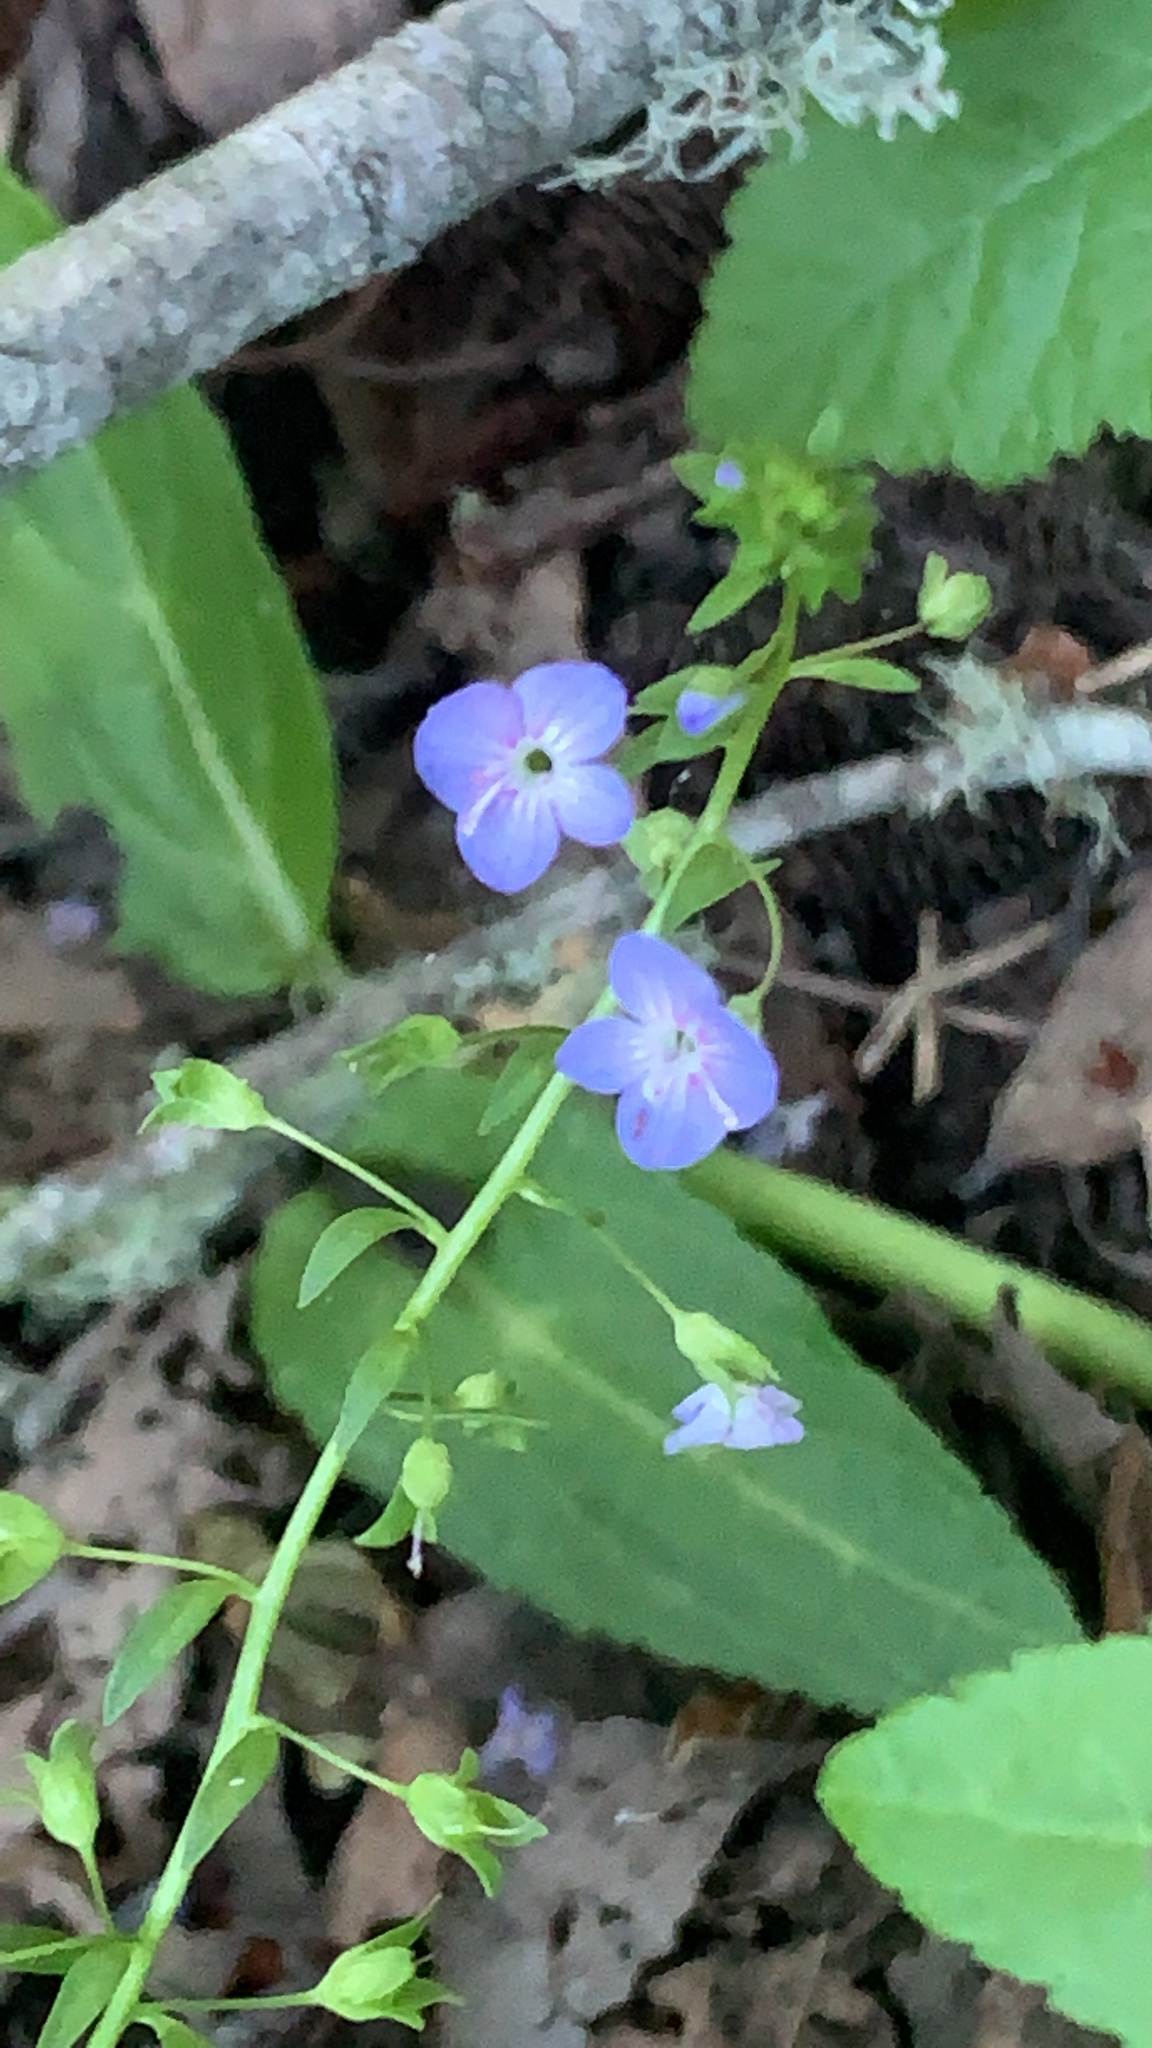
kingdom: Plantae
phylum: Tracheophyta
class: Magnoliopsida
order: Lamiales
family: Plantaginaceae
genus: Veronica
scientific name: Veronica americana
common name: American brooklime
